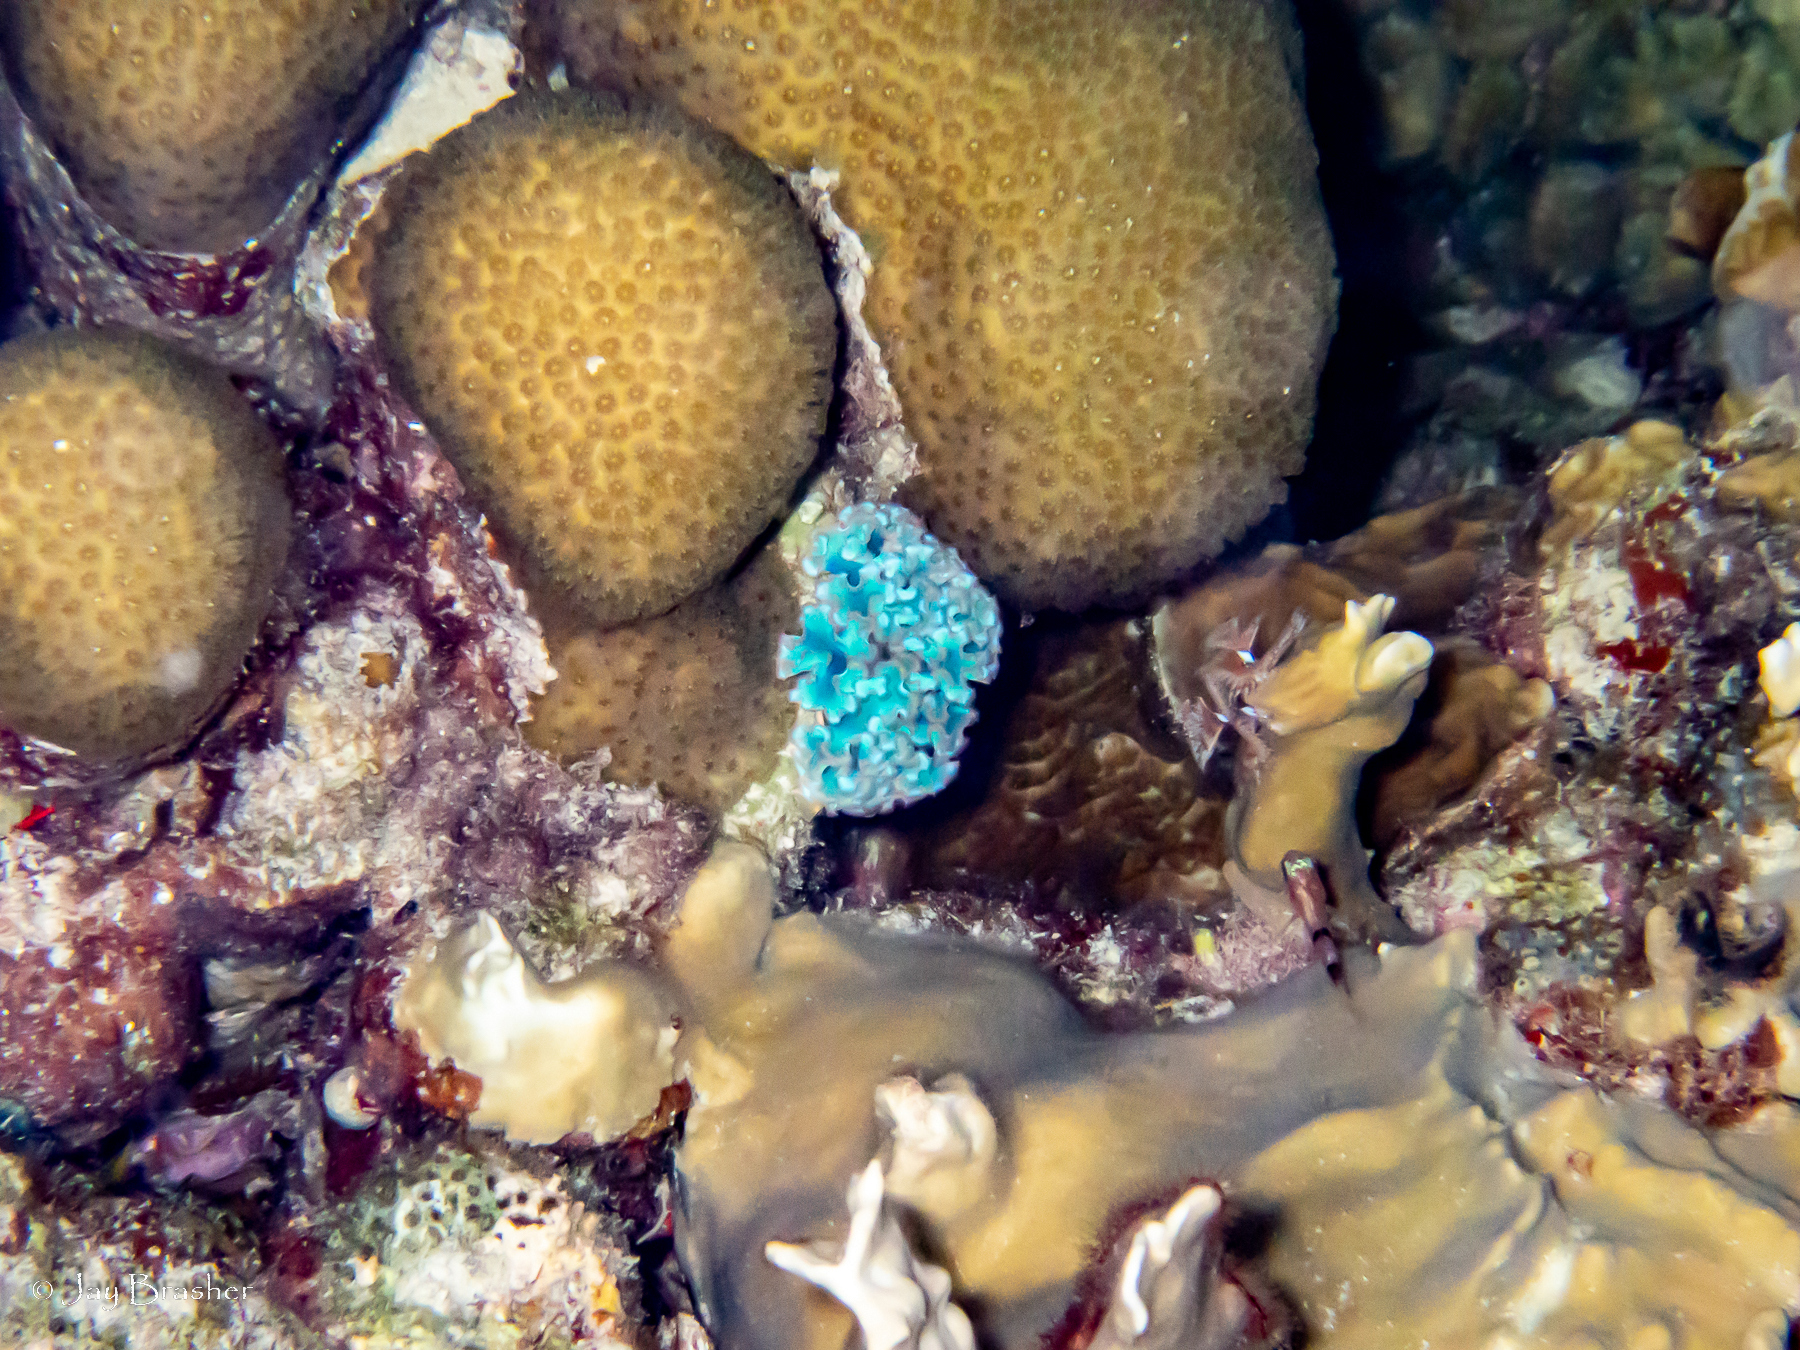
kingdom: Animalia
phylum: Mollusca
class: Gastropoda
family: Plakobranchidae
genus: Elysia
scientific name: Elysia crispata
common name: Lettuce slug
